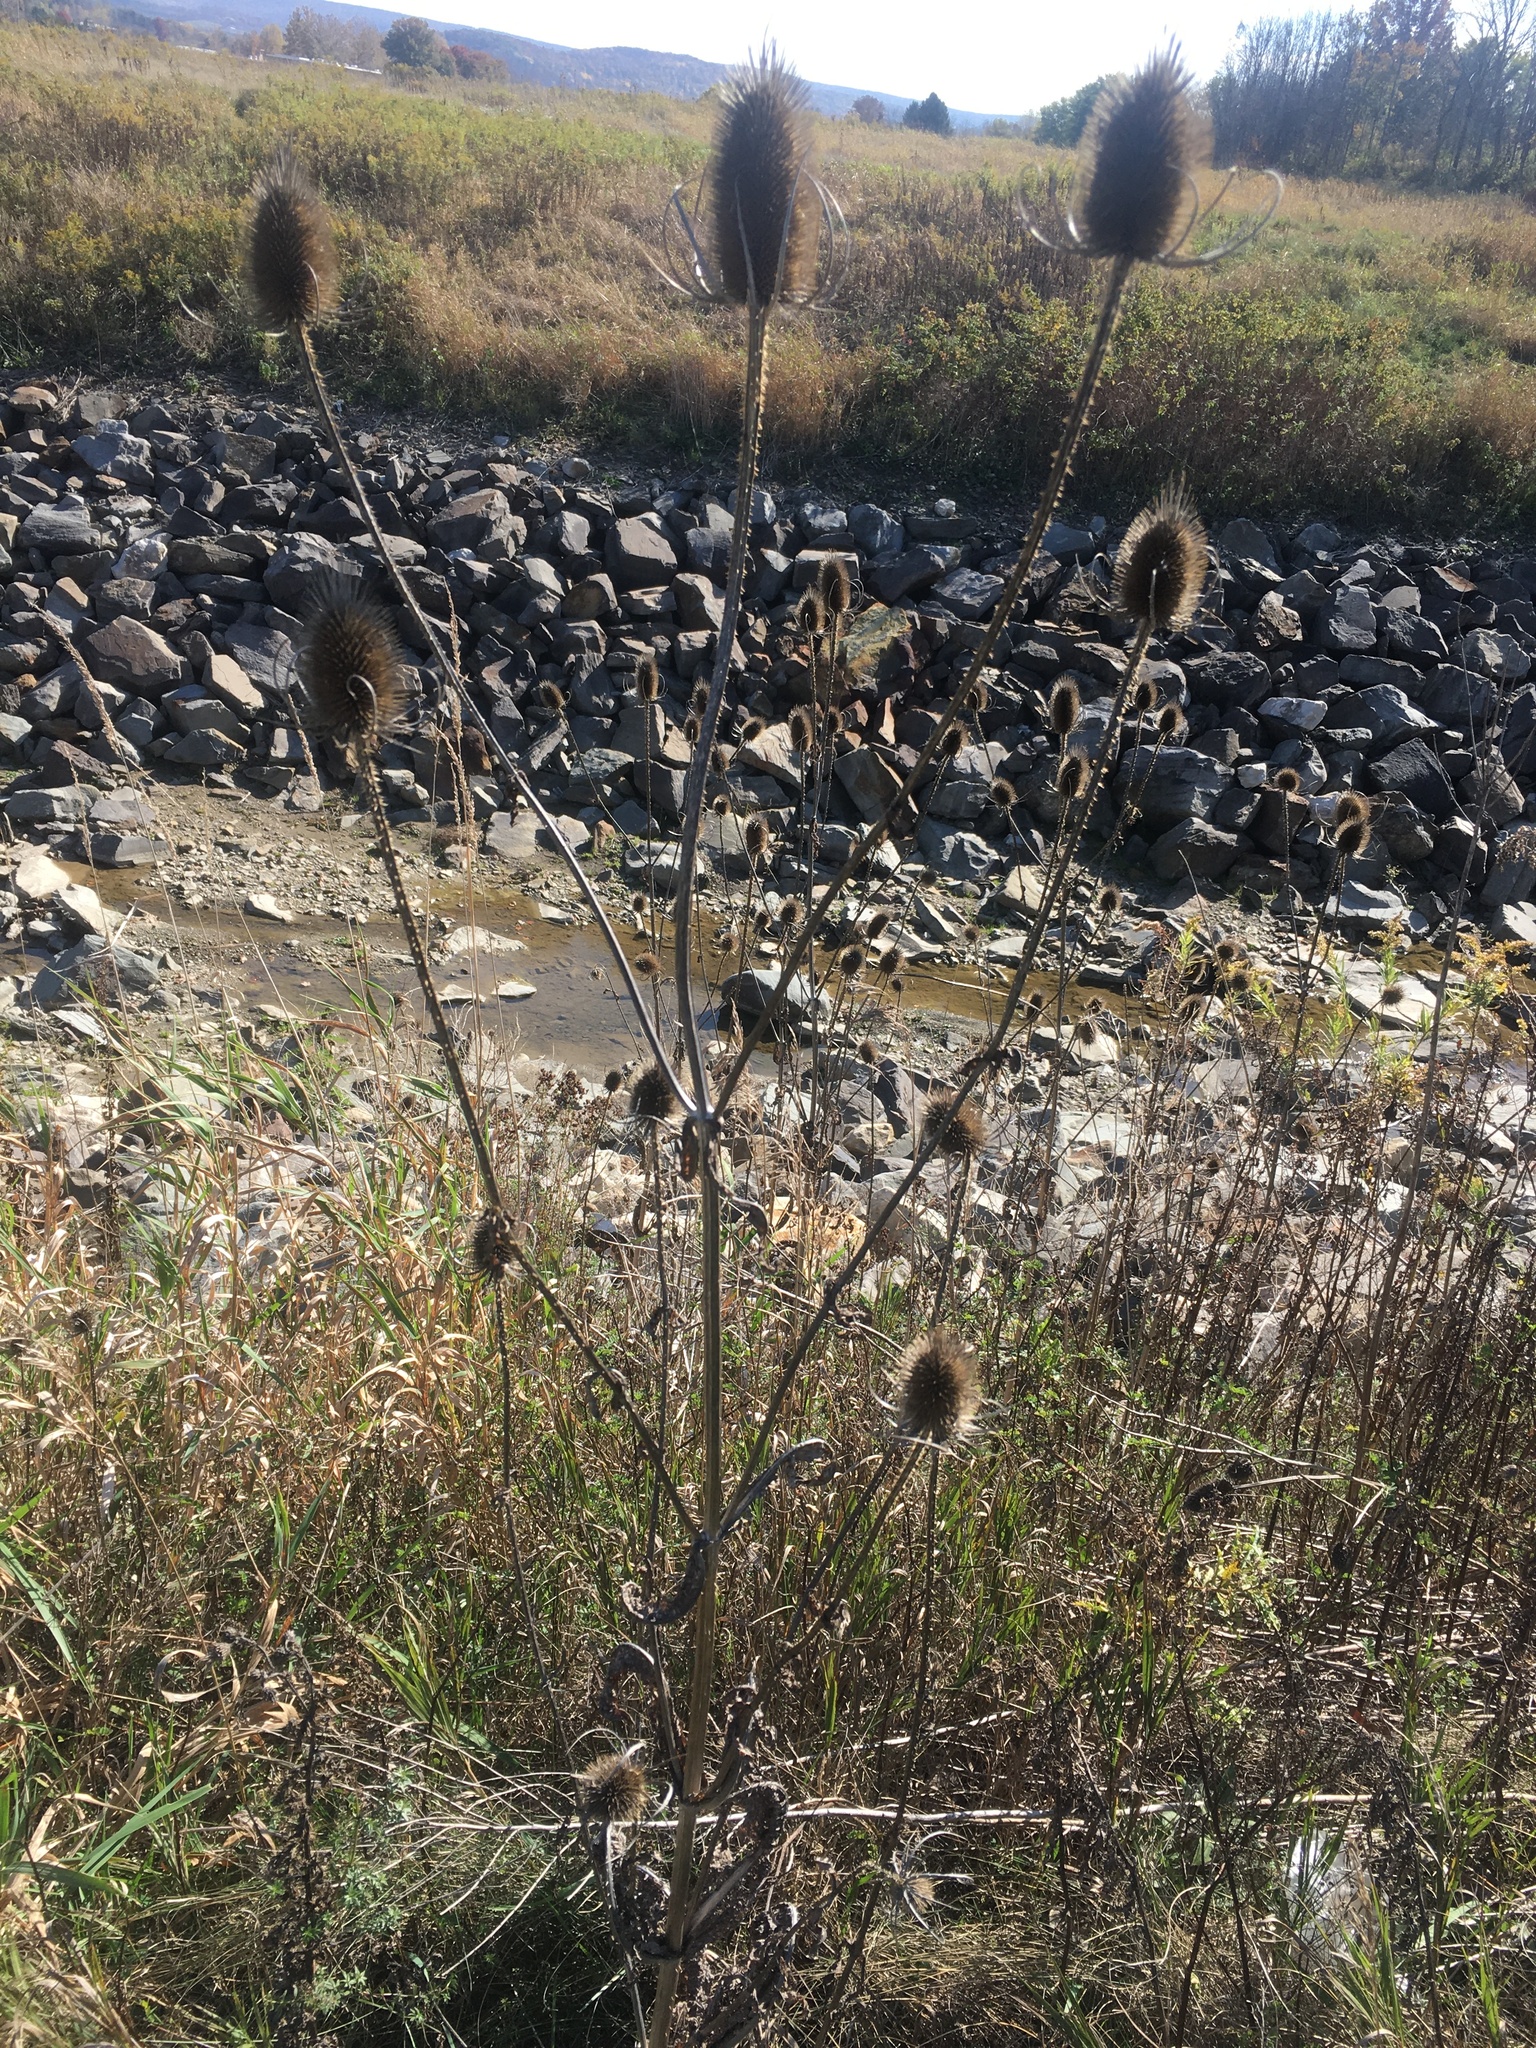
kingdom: Plantae
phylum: Tracheophyta
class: Magnoliopsida
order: Dipsacales
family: Caprifoliaceae
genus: Dipsacus
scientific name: Dipsacus fullonum
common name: Teasel
